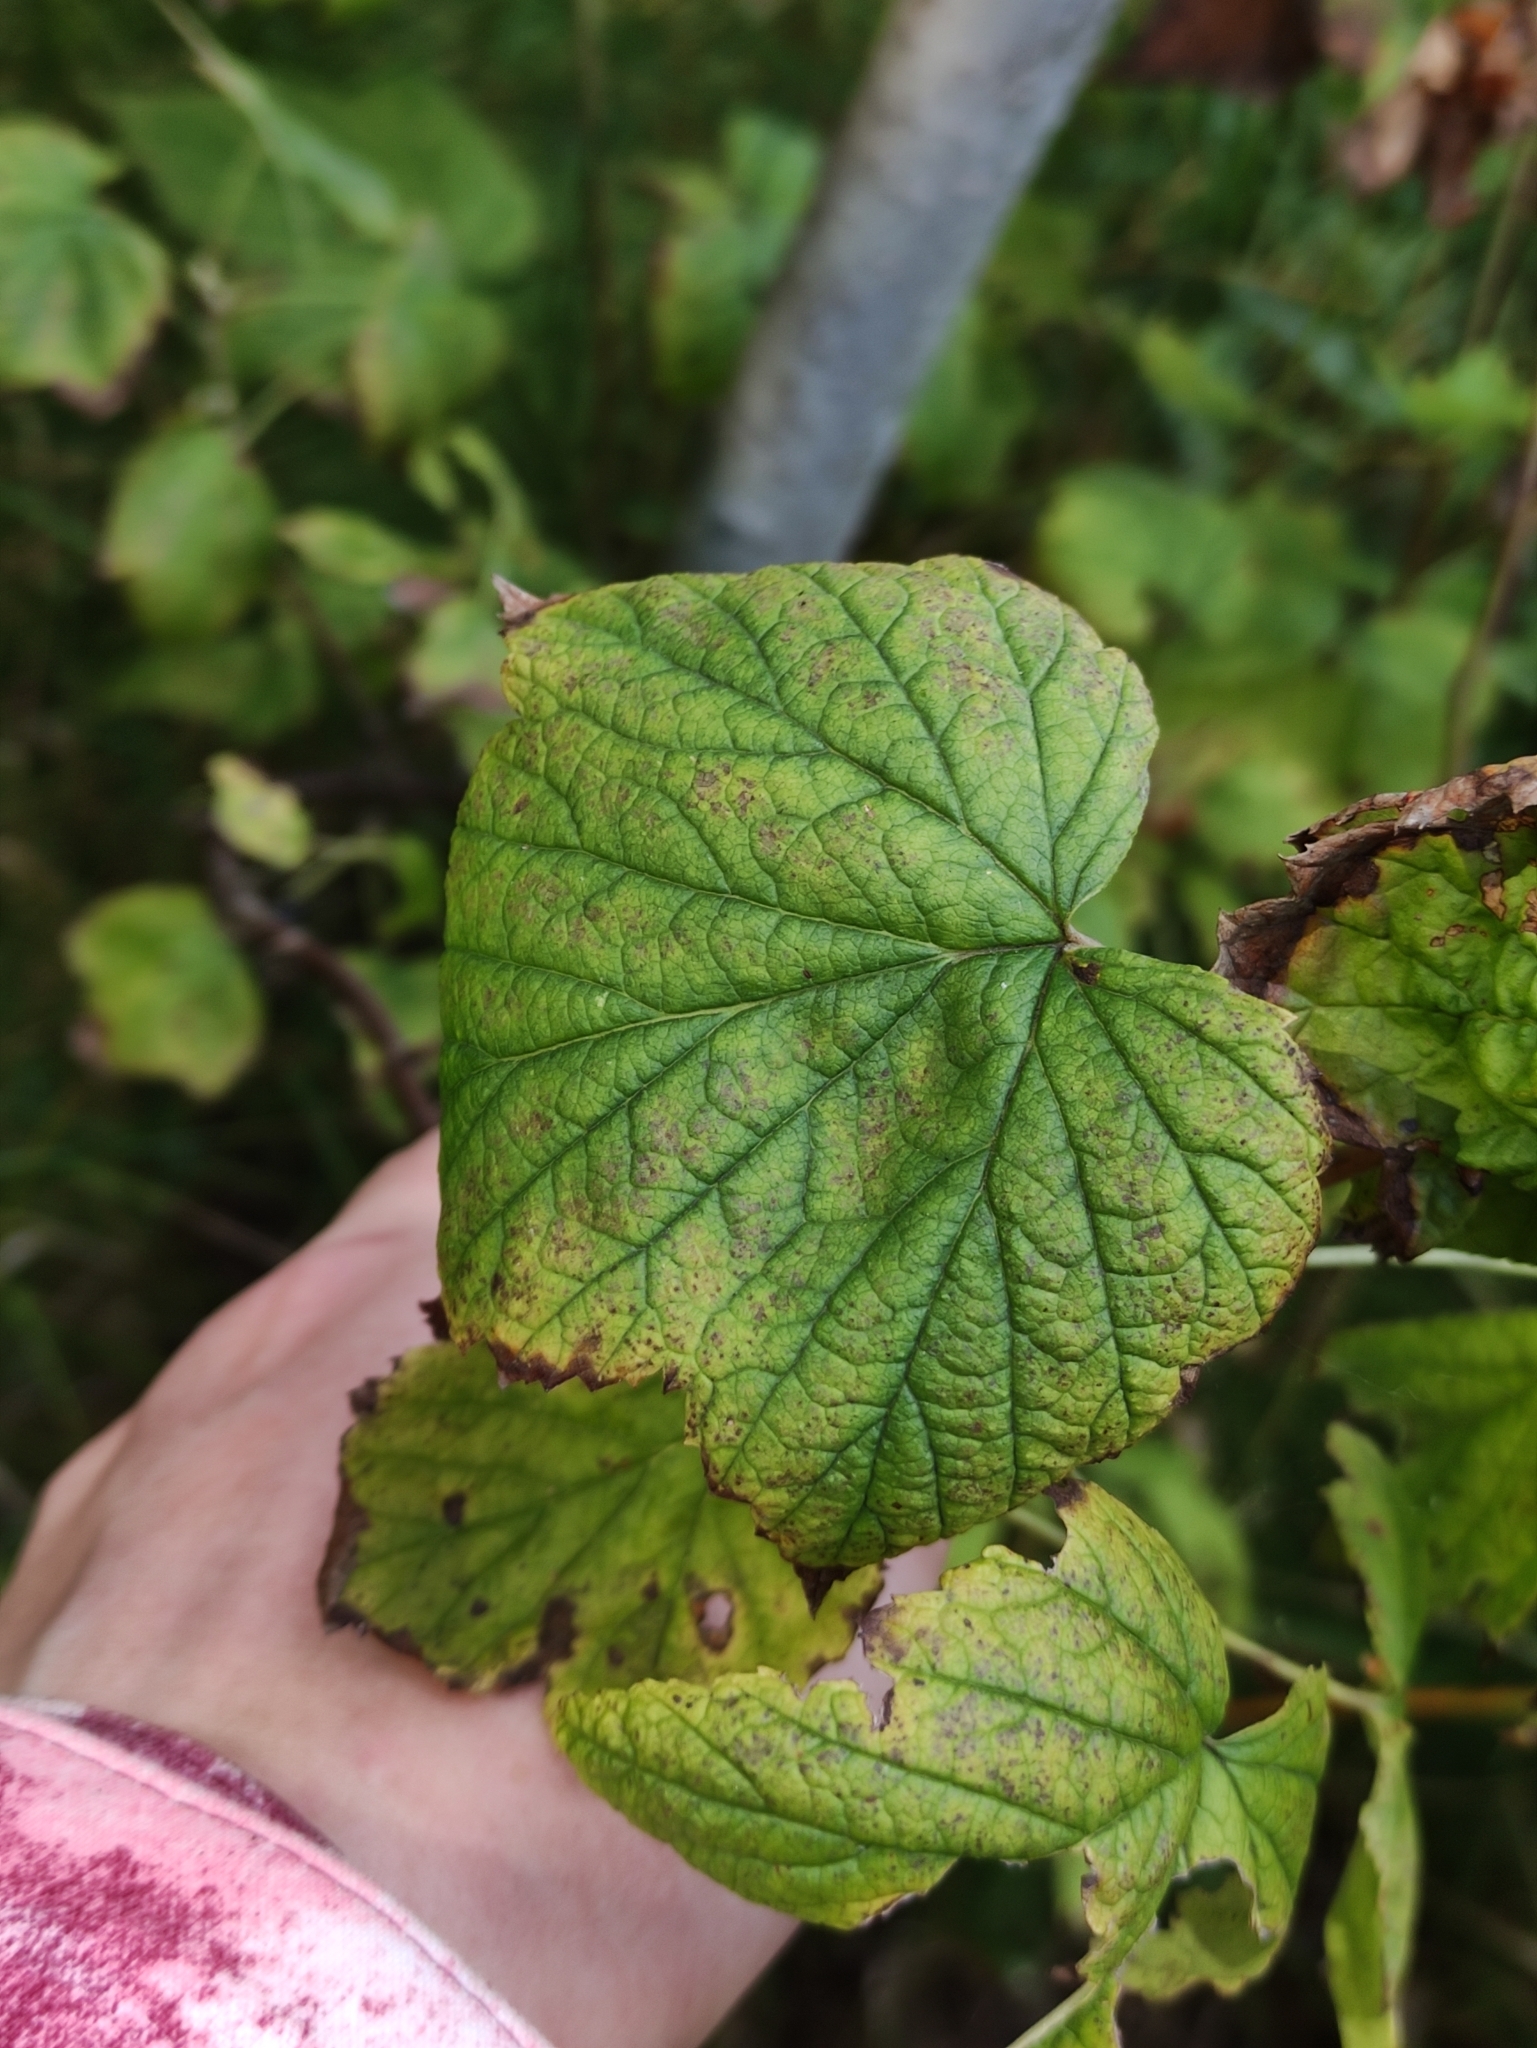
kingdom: Plantae
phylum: Tracheophyta
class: Magnoliopsida
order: Saxifragales
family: Grossulariaceae
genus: Ribes
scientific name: Ribes nigrum
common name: Black currant
